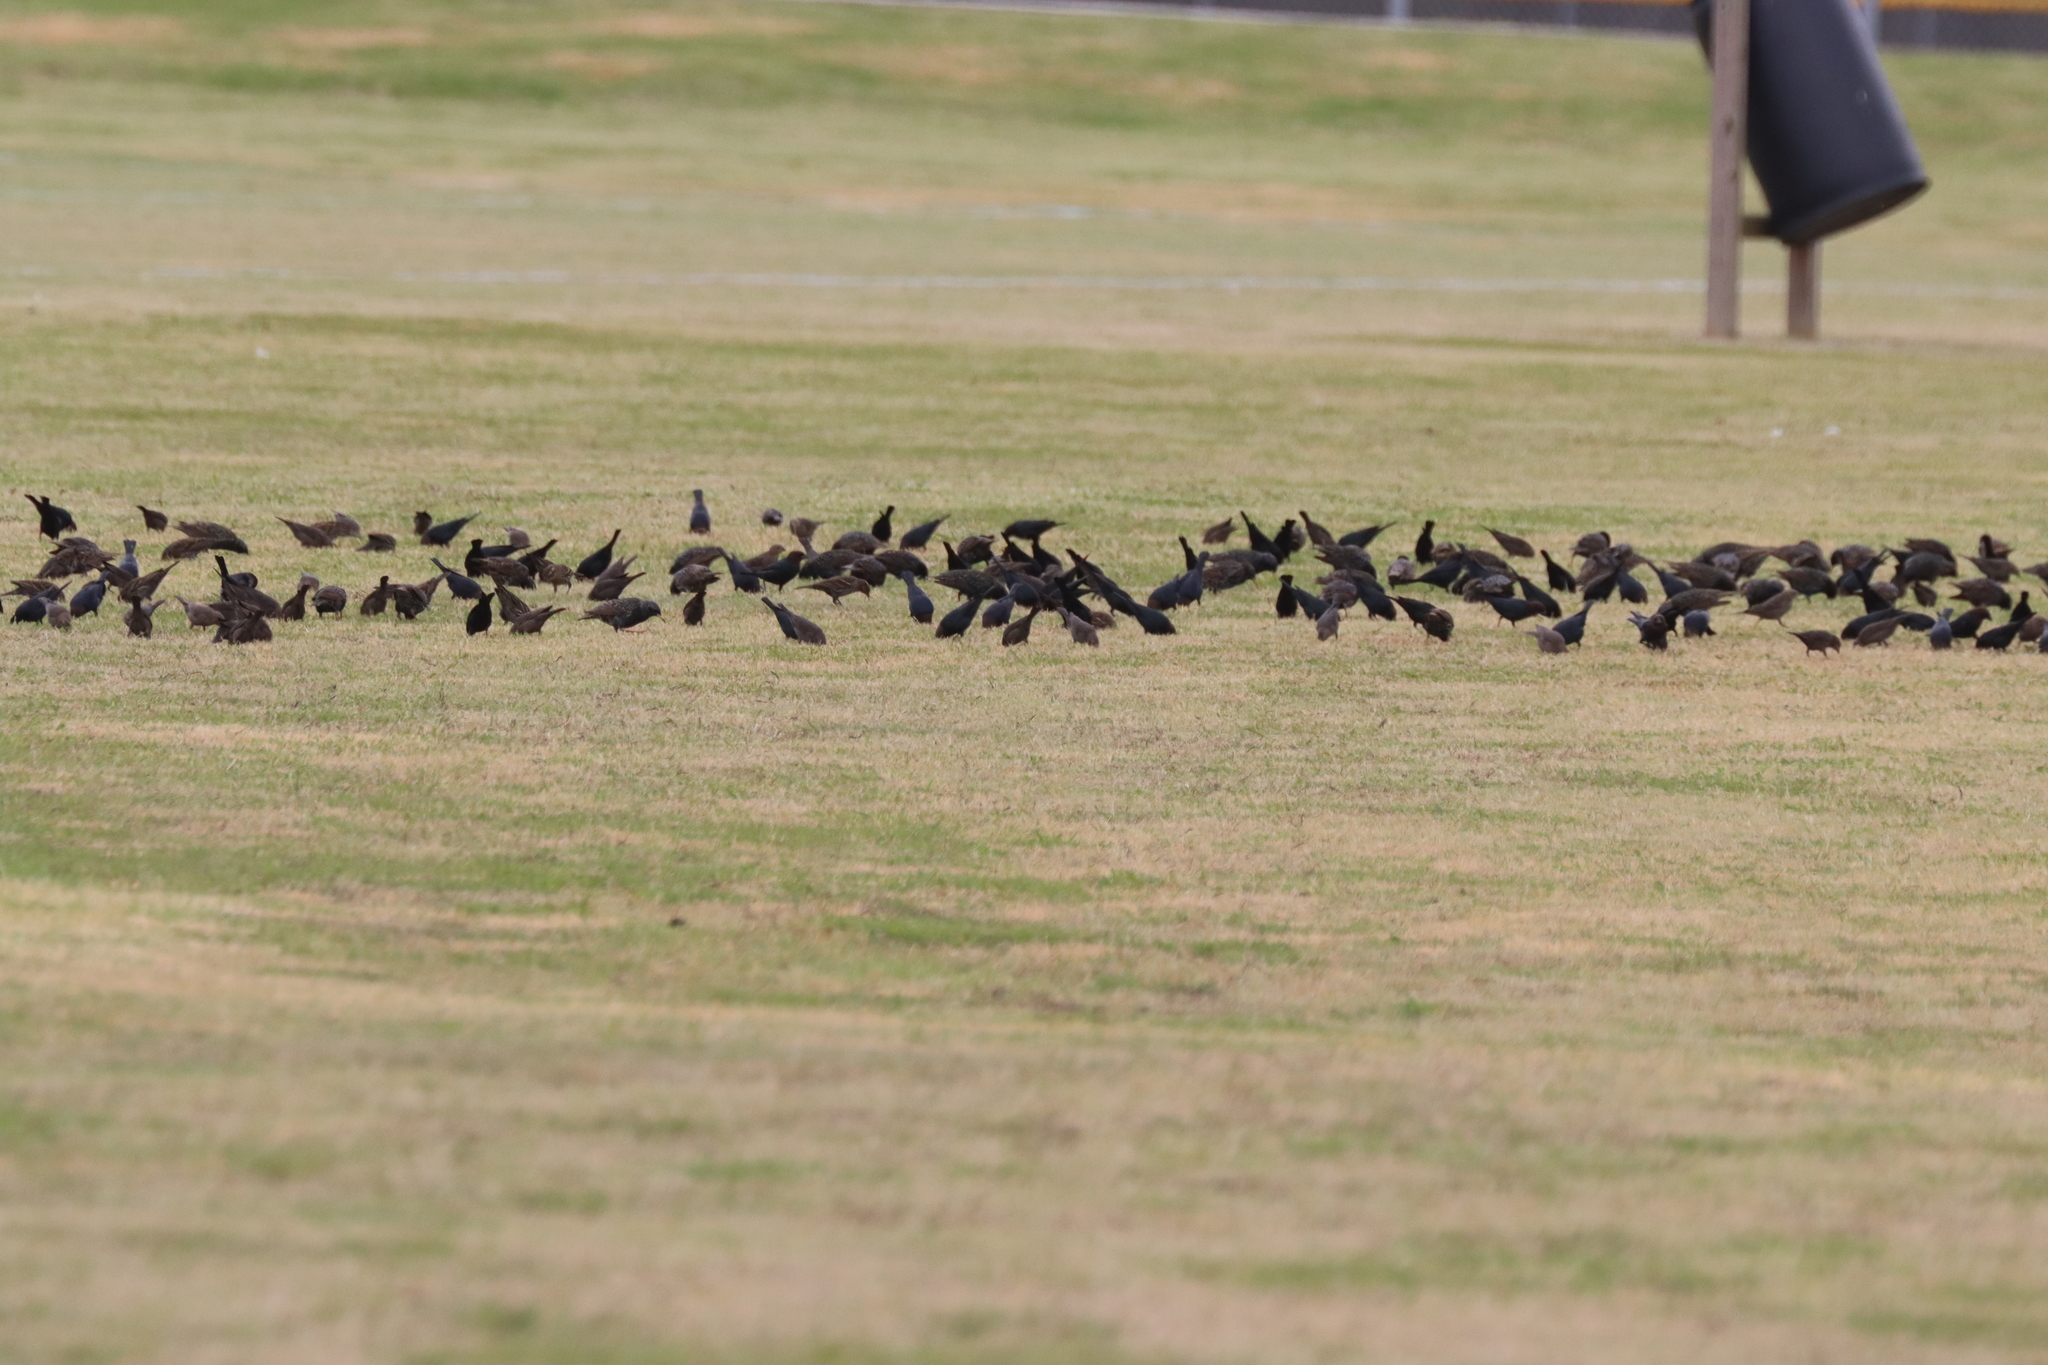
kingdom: Animalia
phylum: Chordata
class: Aves
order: Passeriformes
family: Sturnidae
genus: Sturnus
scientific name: Sturnus vulgaris
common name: Common starling
